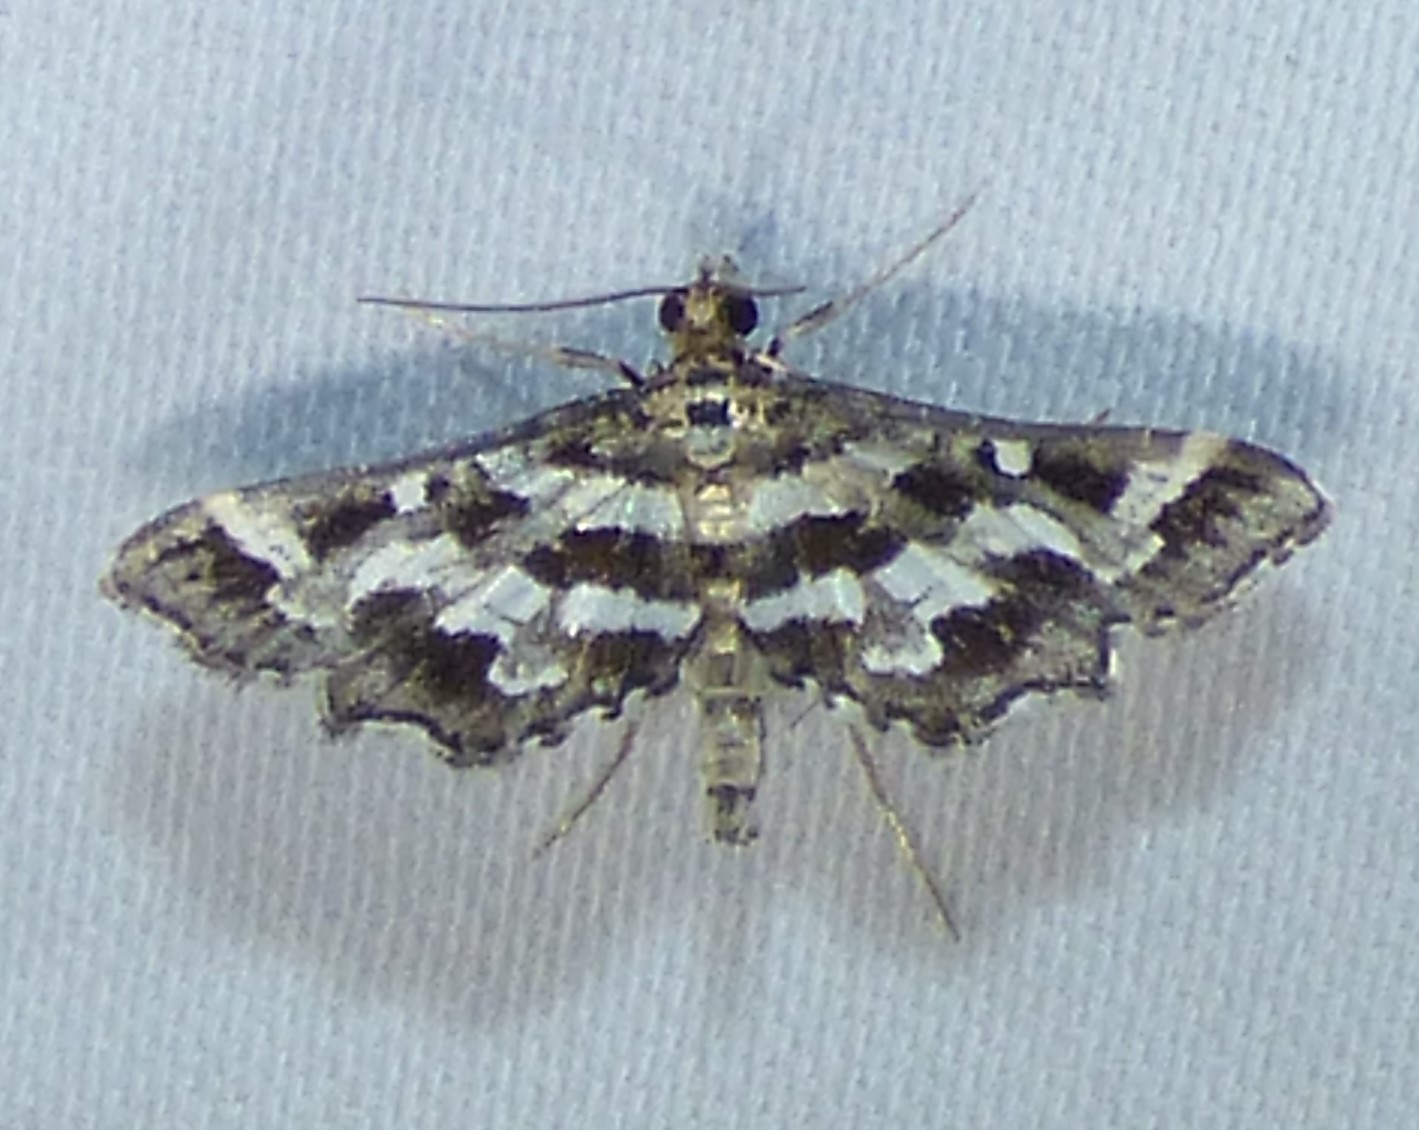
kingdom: Animalia
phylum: Arthropoda
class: Insecta
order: Lepidoptera
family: Crambidae
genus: Diasemiopsis
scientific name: Diasemiopsis ramburialis
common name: Vagrant china-mark
